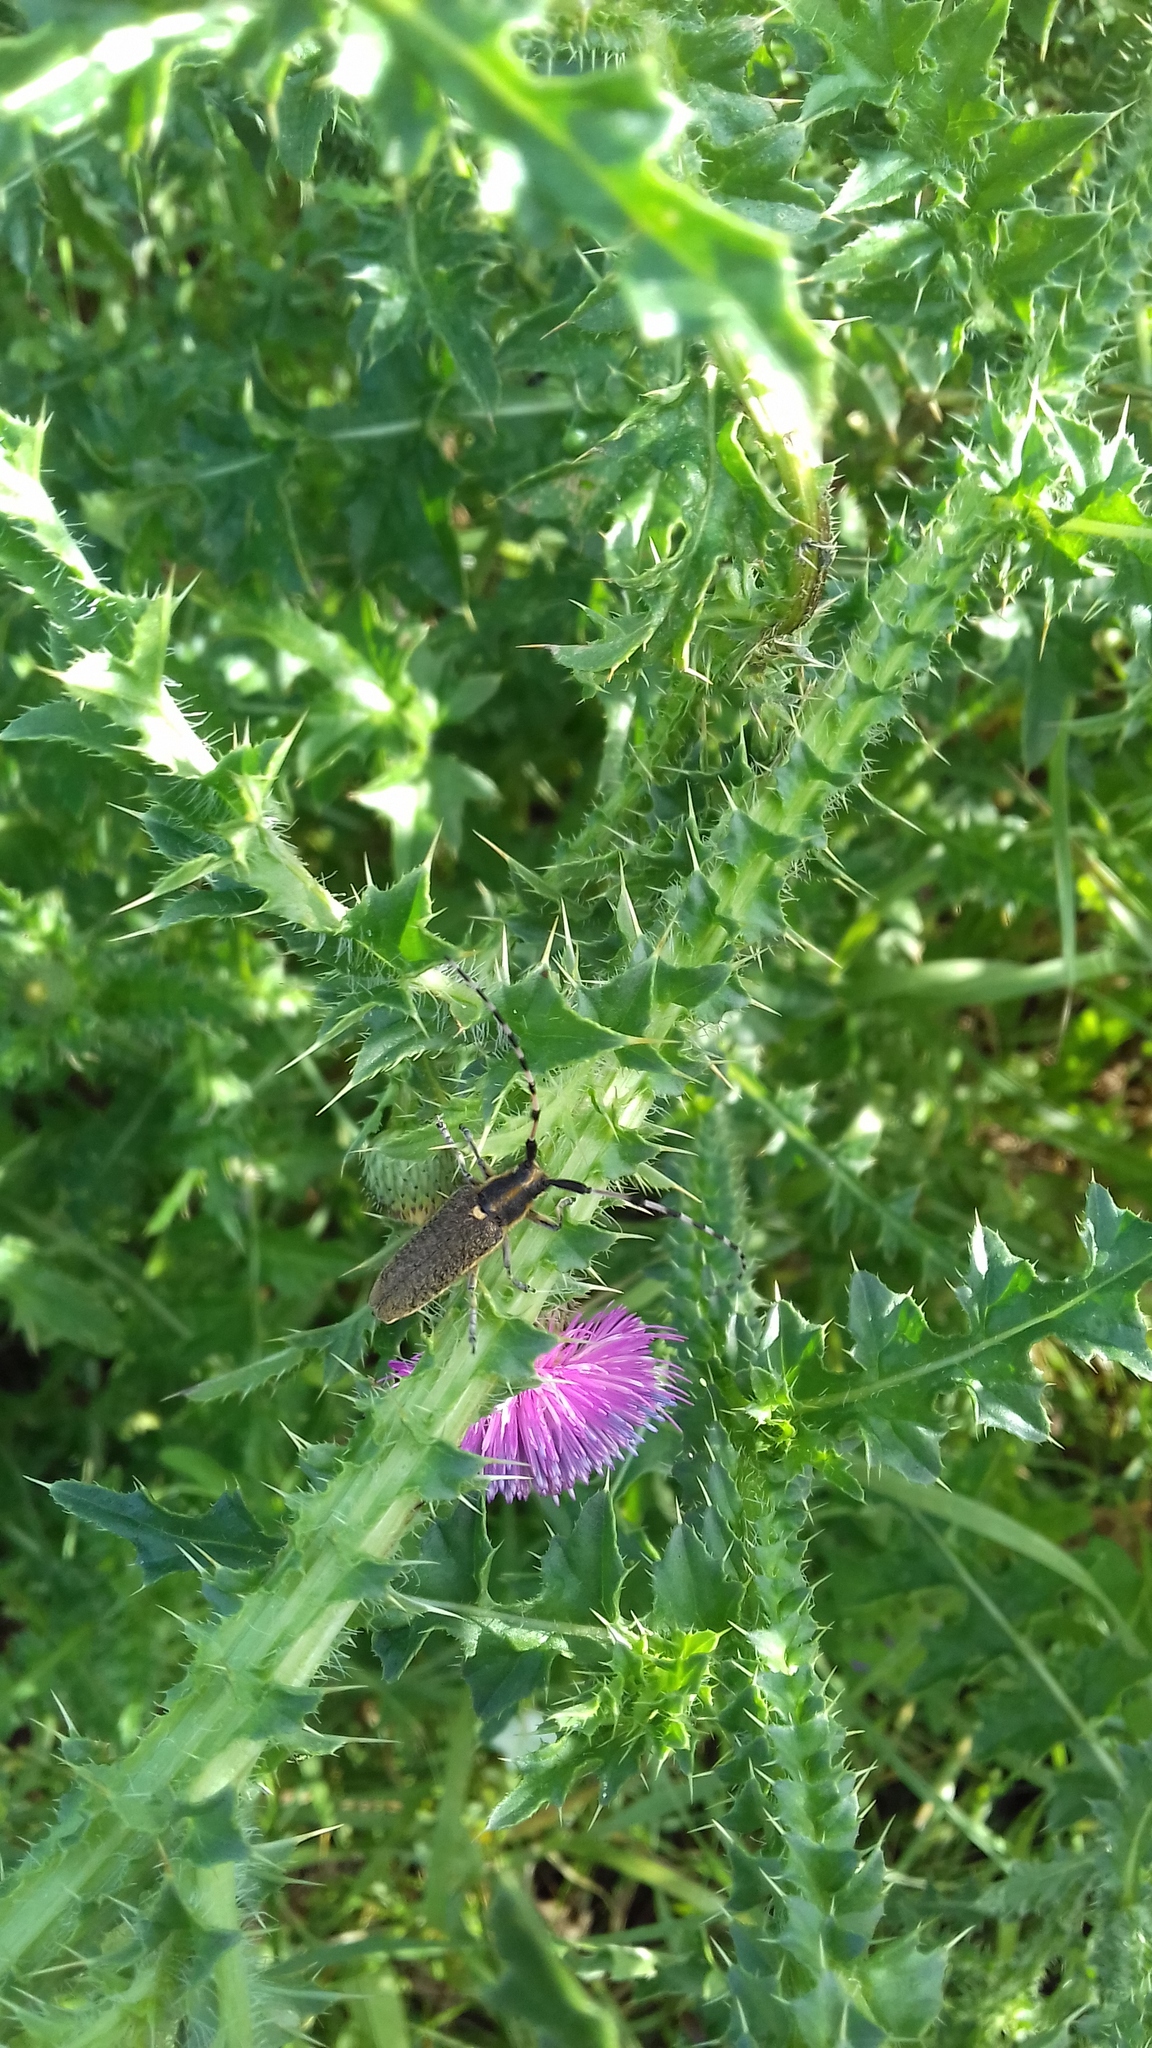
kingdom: Animalia
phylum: Arthropoda
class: Insecta
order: Coleoptera
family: Cerambycidae
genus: Agapanthia
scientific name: Agapanthia dahlii
